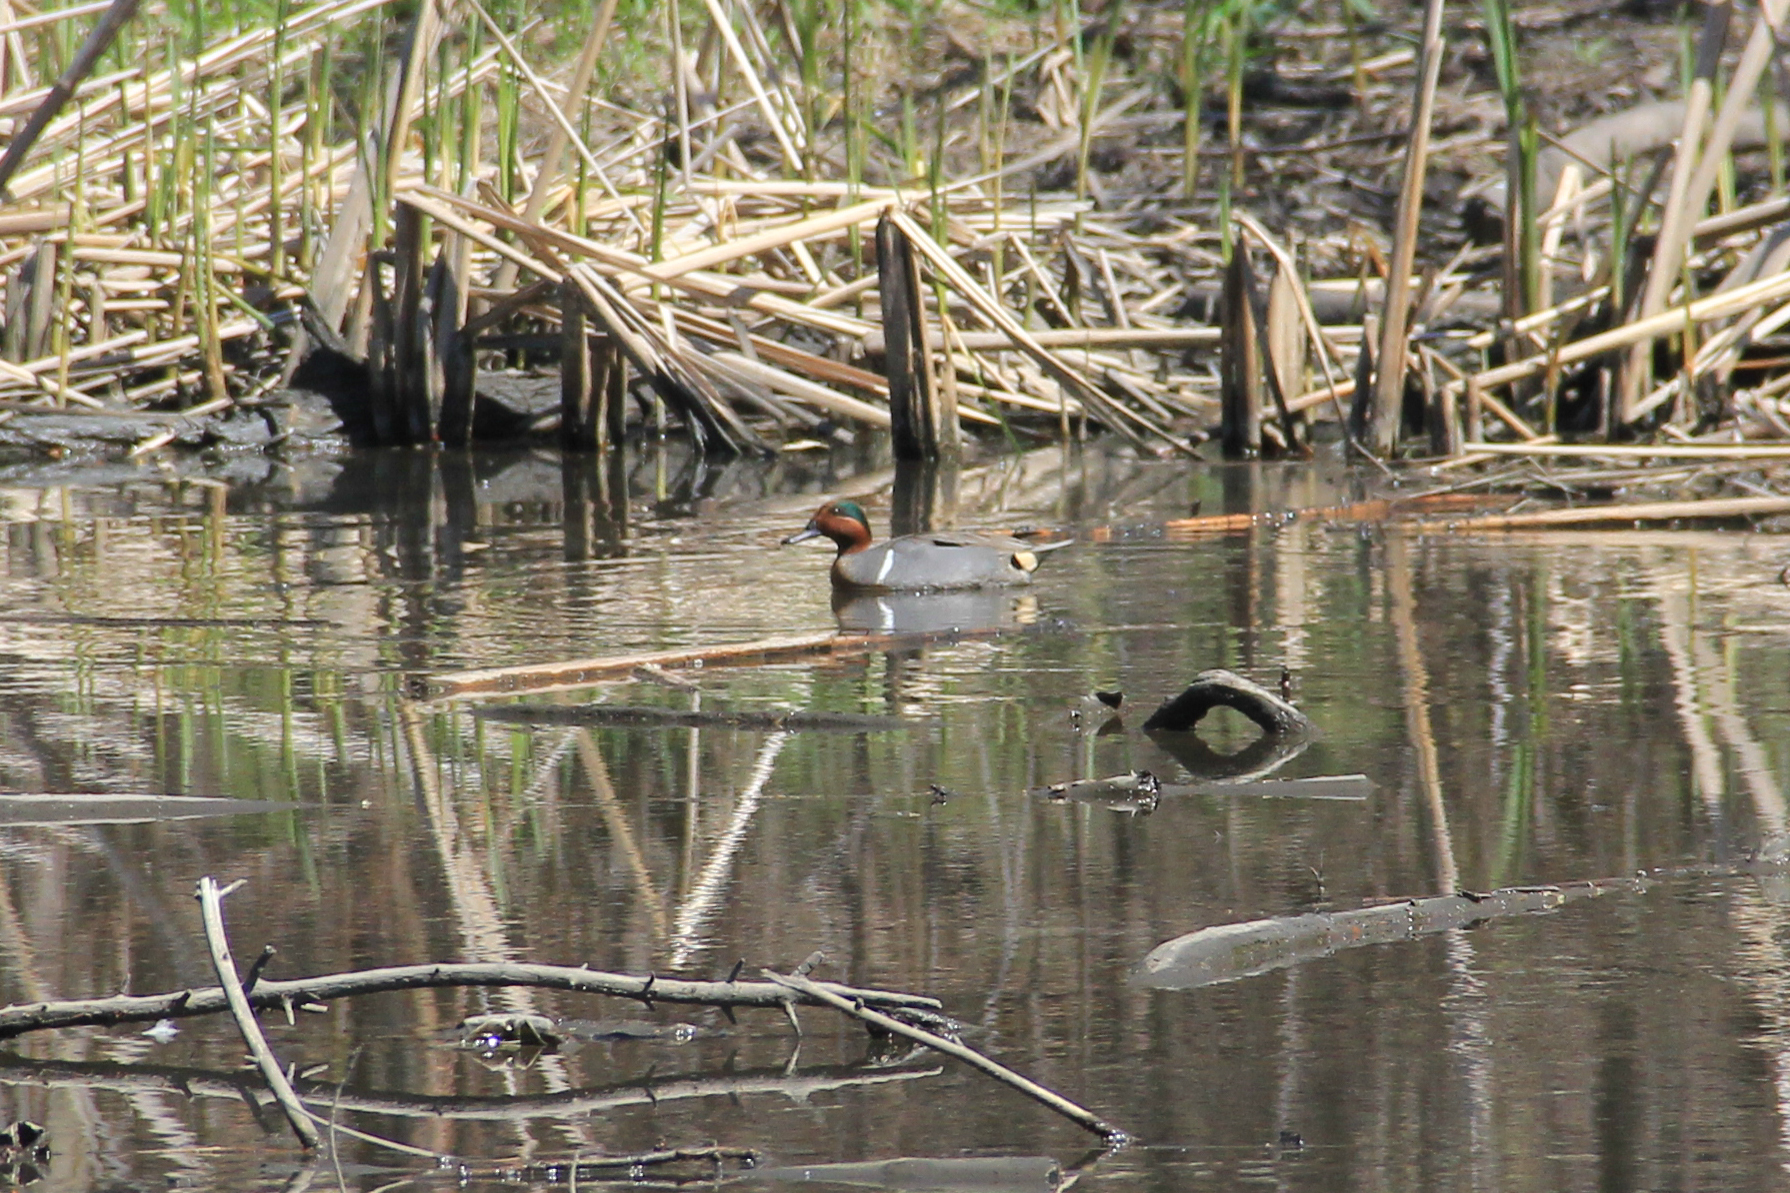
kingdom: Animalia
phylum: Chordata
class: Aves
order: Anseriformes
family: Anatidae
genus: Anas
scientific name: Anas crecca
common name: Eurasian teal
